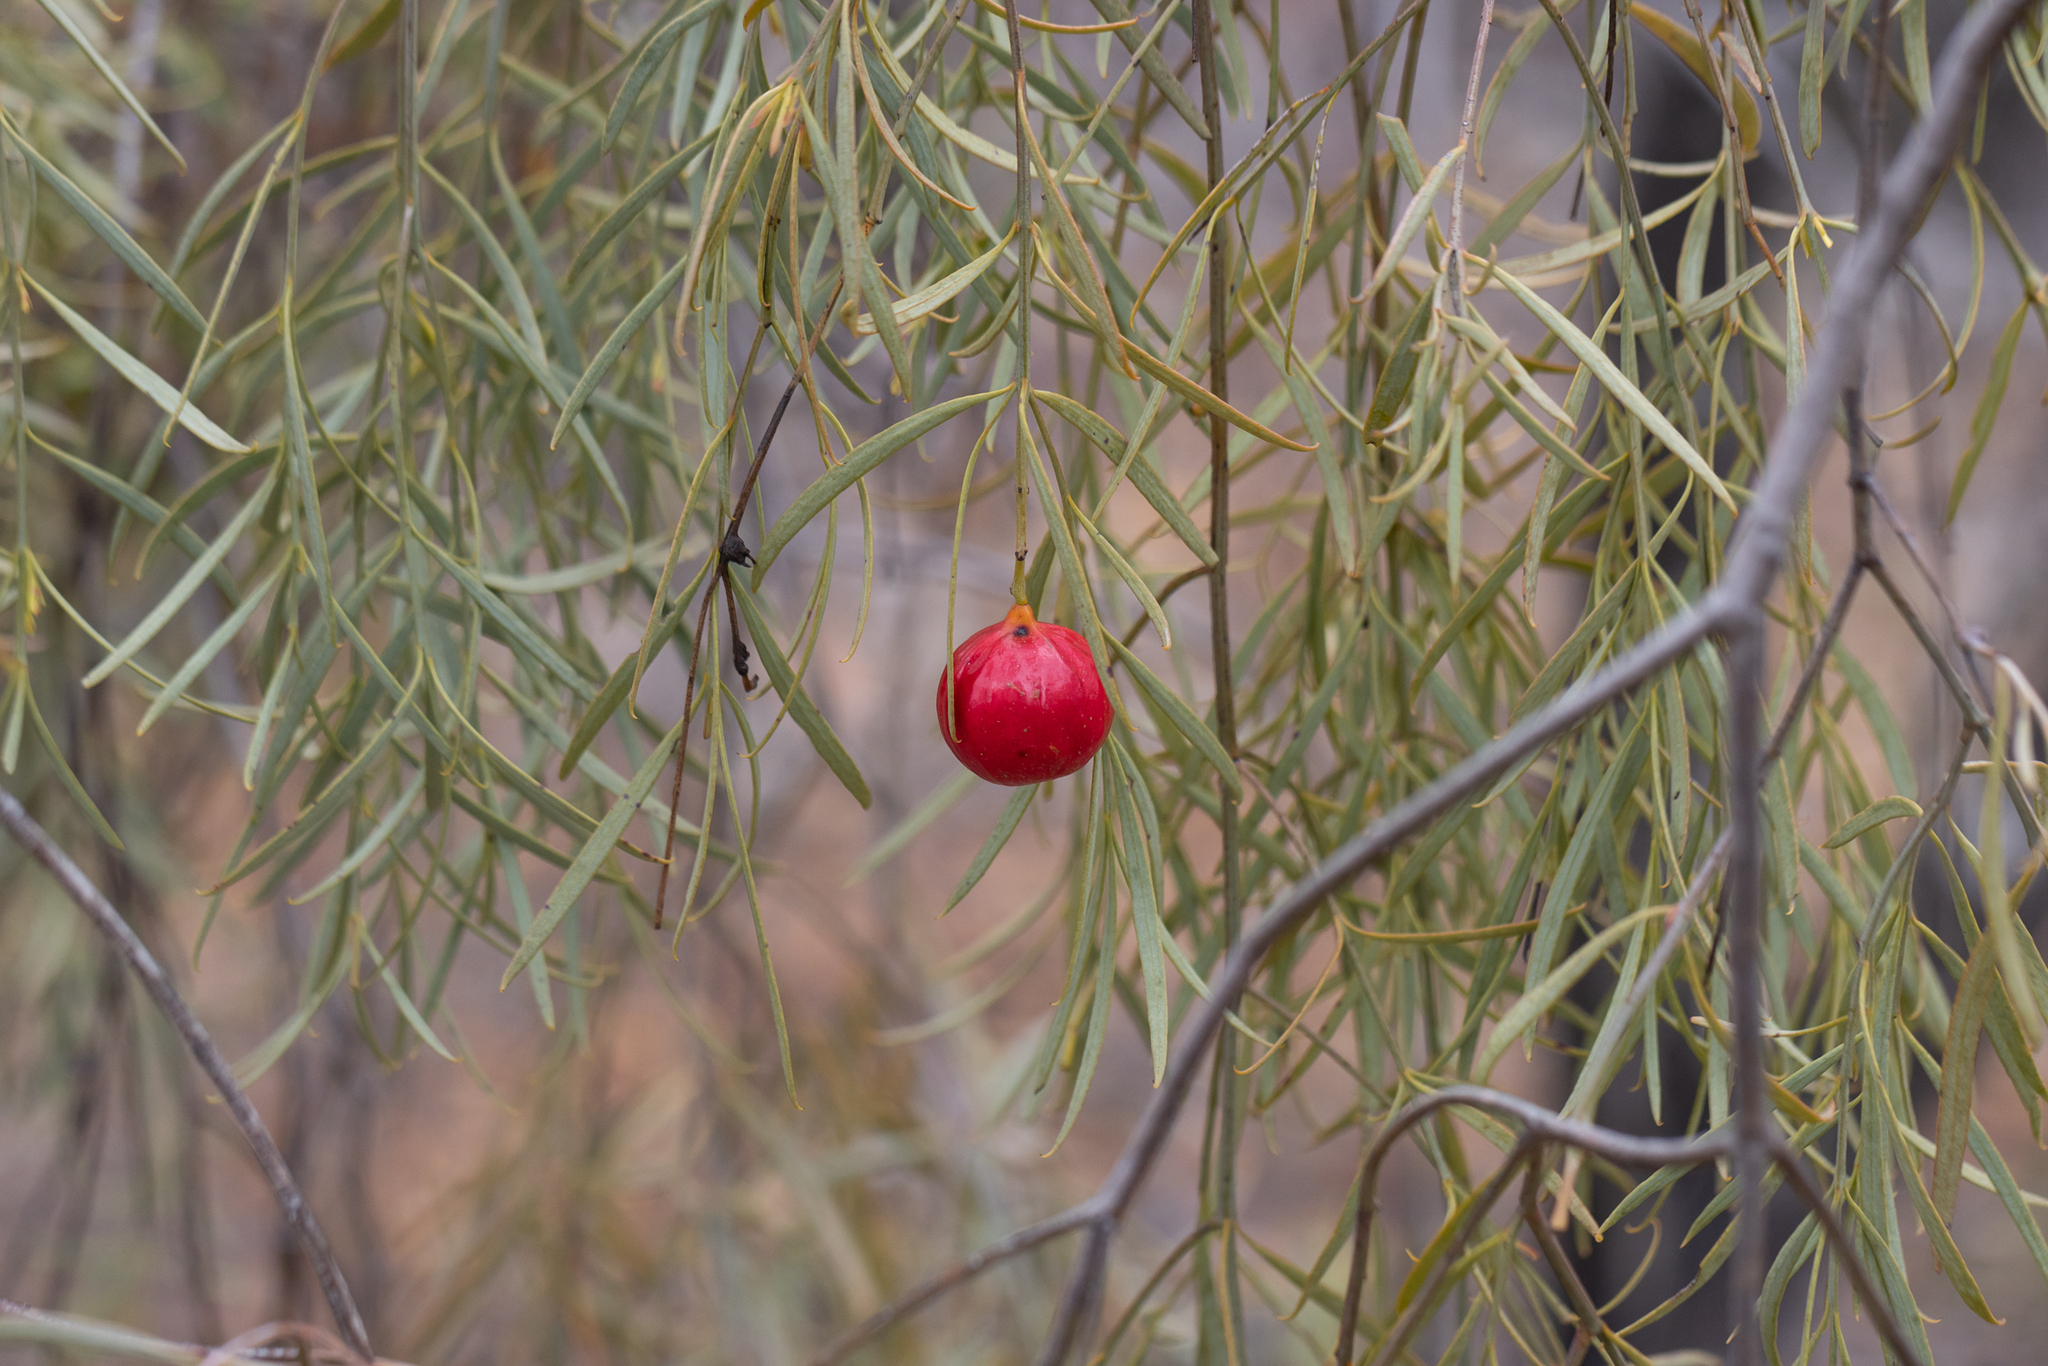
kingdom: Plantae
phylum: Tracheophyta
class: Magnoliopsida
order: Santalales
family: Santalaceae
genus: Santalum
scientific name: Santalum murrayanum
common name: Bitter quandong
